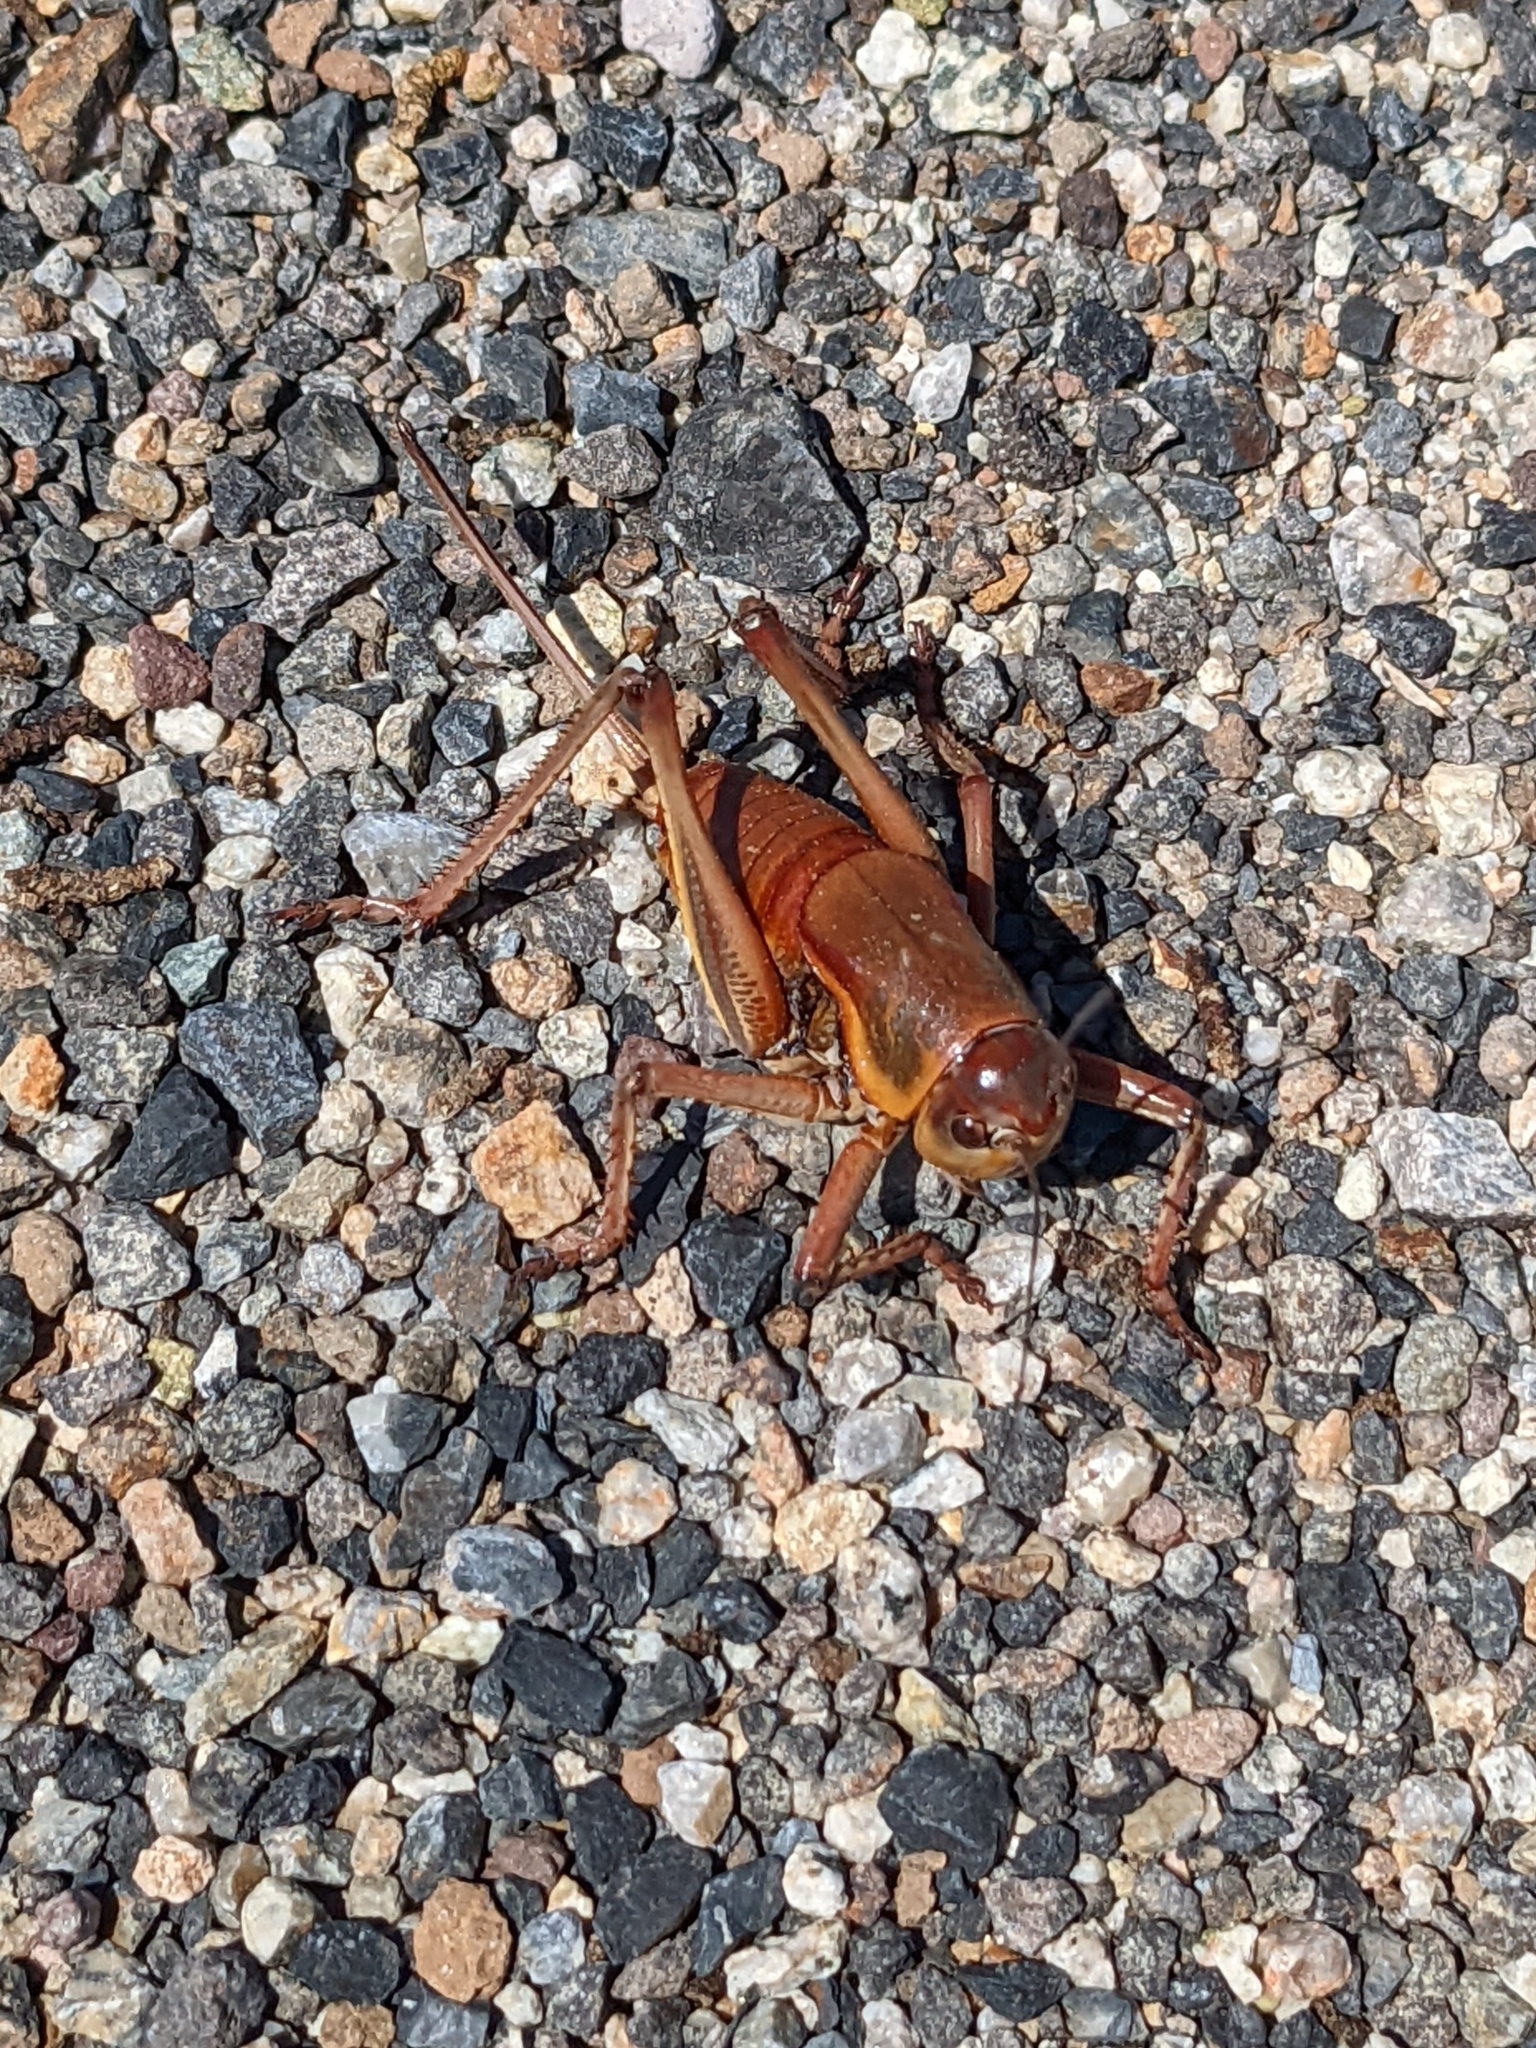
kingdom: Animalia
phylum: Arthropoda
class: Insecta
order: Orthoptera
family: Tettigoniidae
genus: Anabrus
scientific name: Anabrus simplex
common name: Mormon cricket
